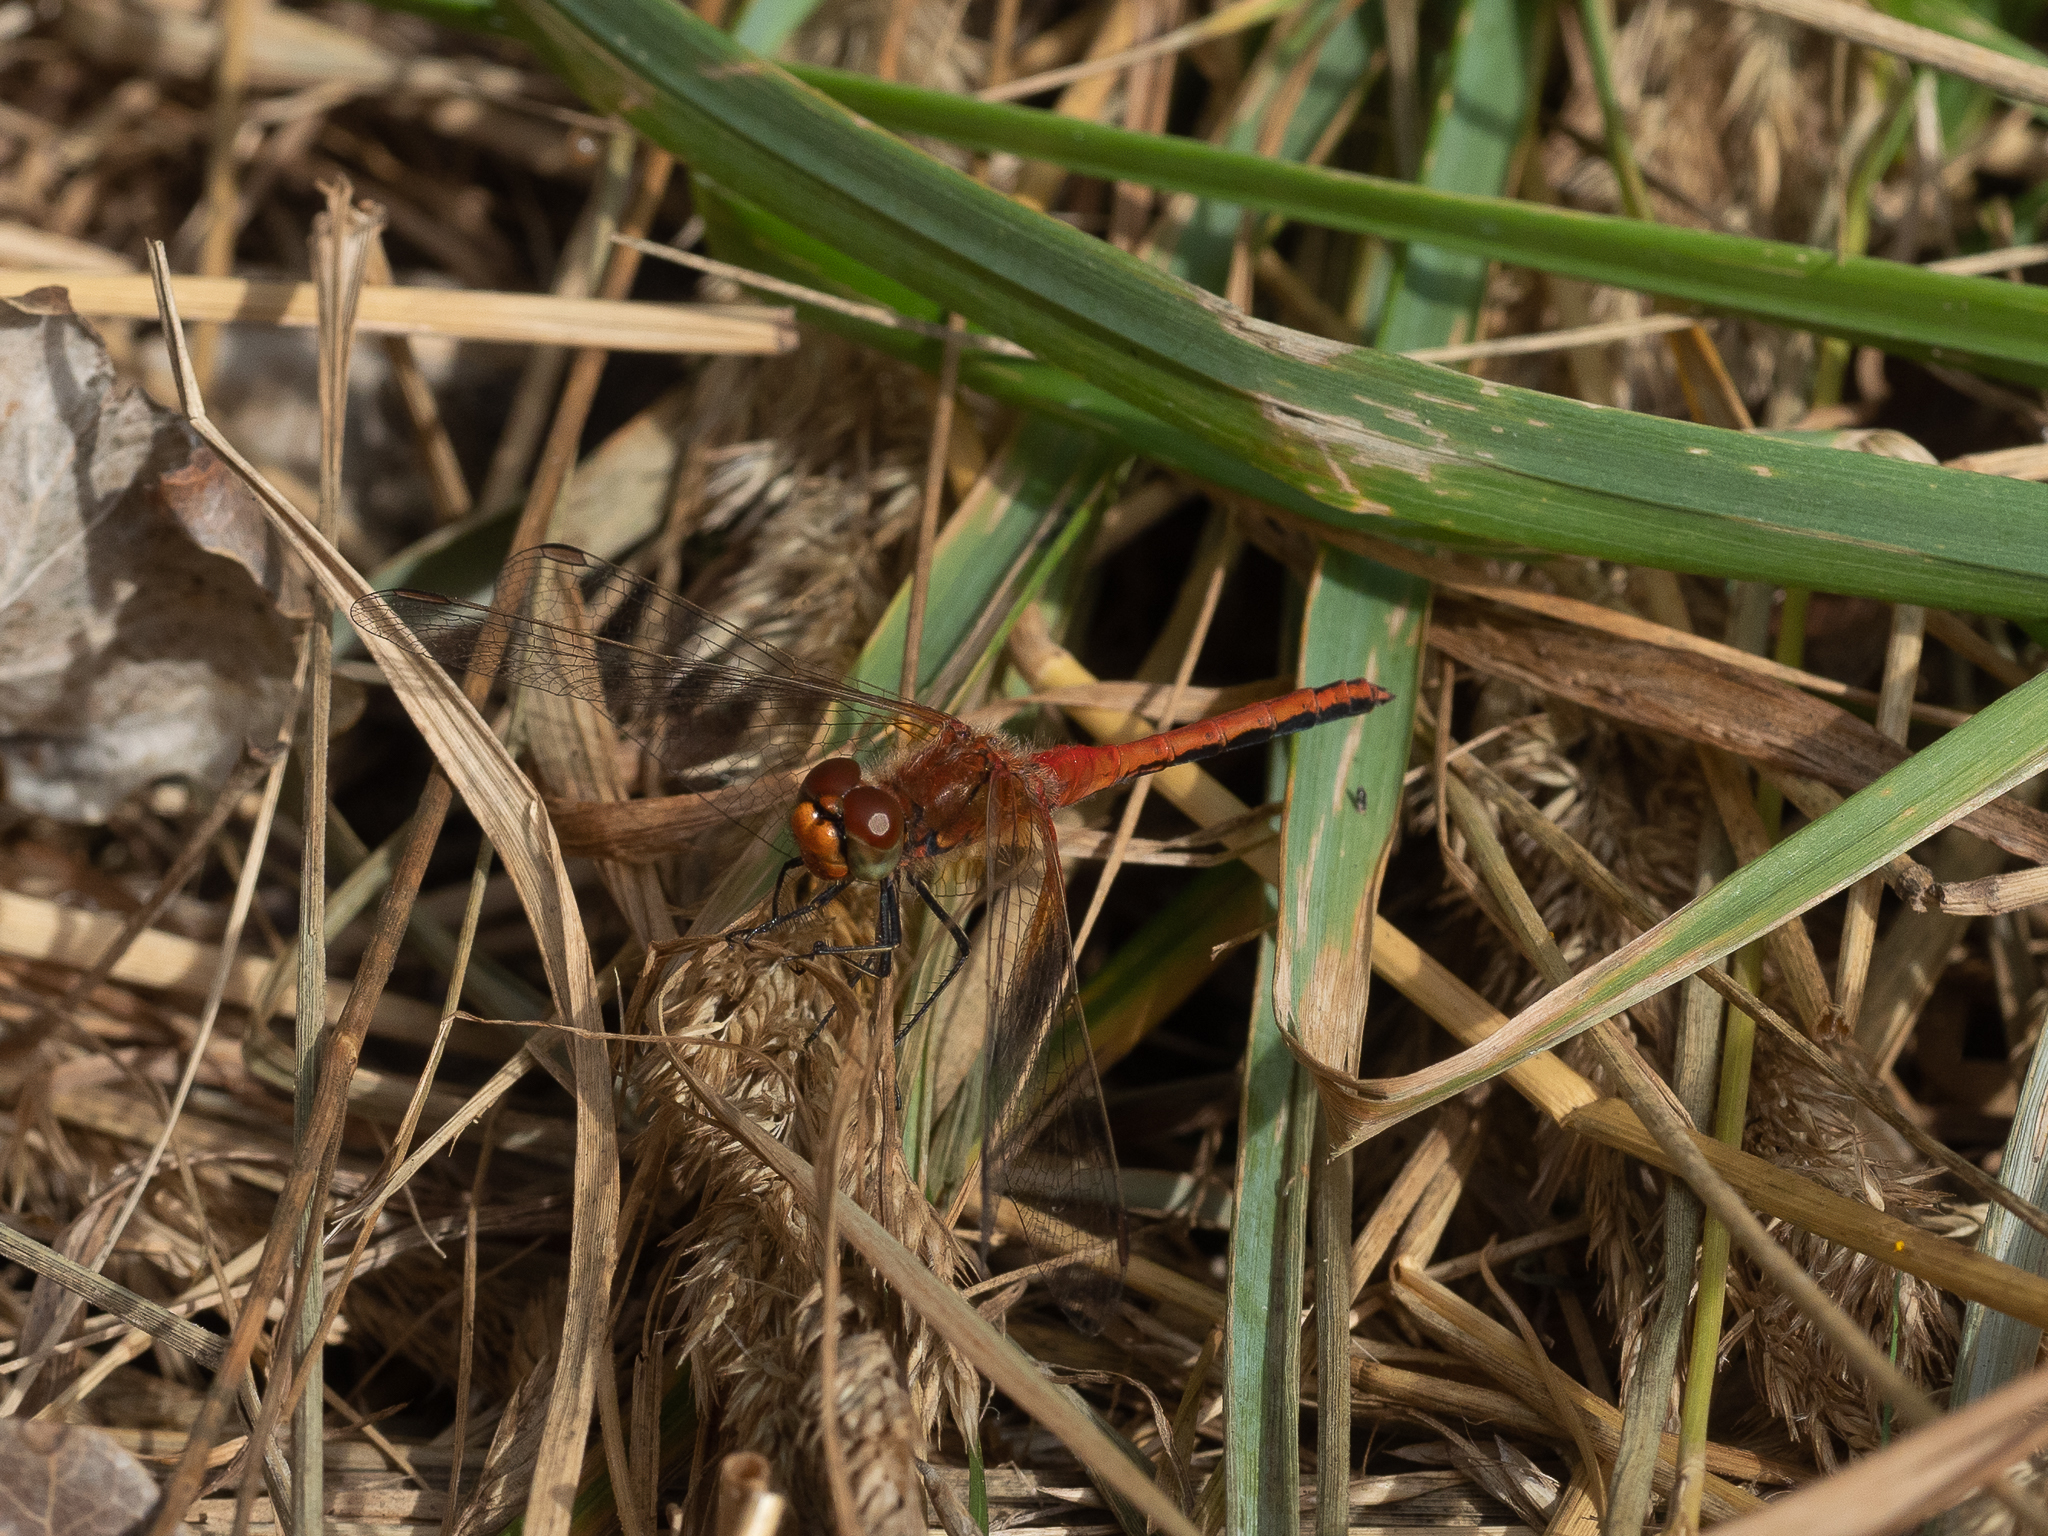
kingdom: Animalia
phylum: Arthropoda
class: Insecta
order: Odonata
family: Libellulidae
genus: Sympetrum
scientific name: Sympetrum flaveolum
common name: Yellow-winged darter
